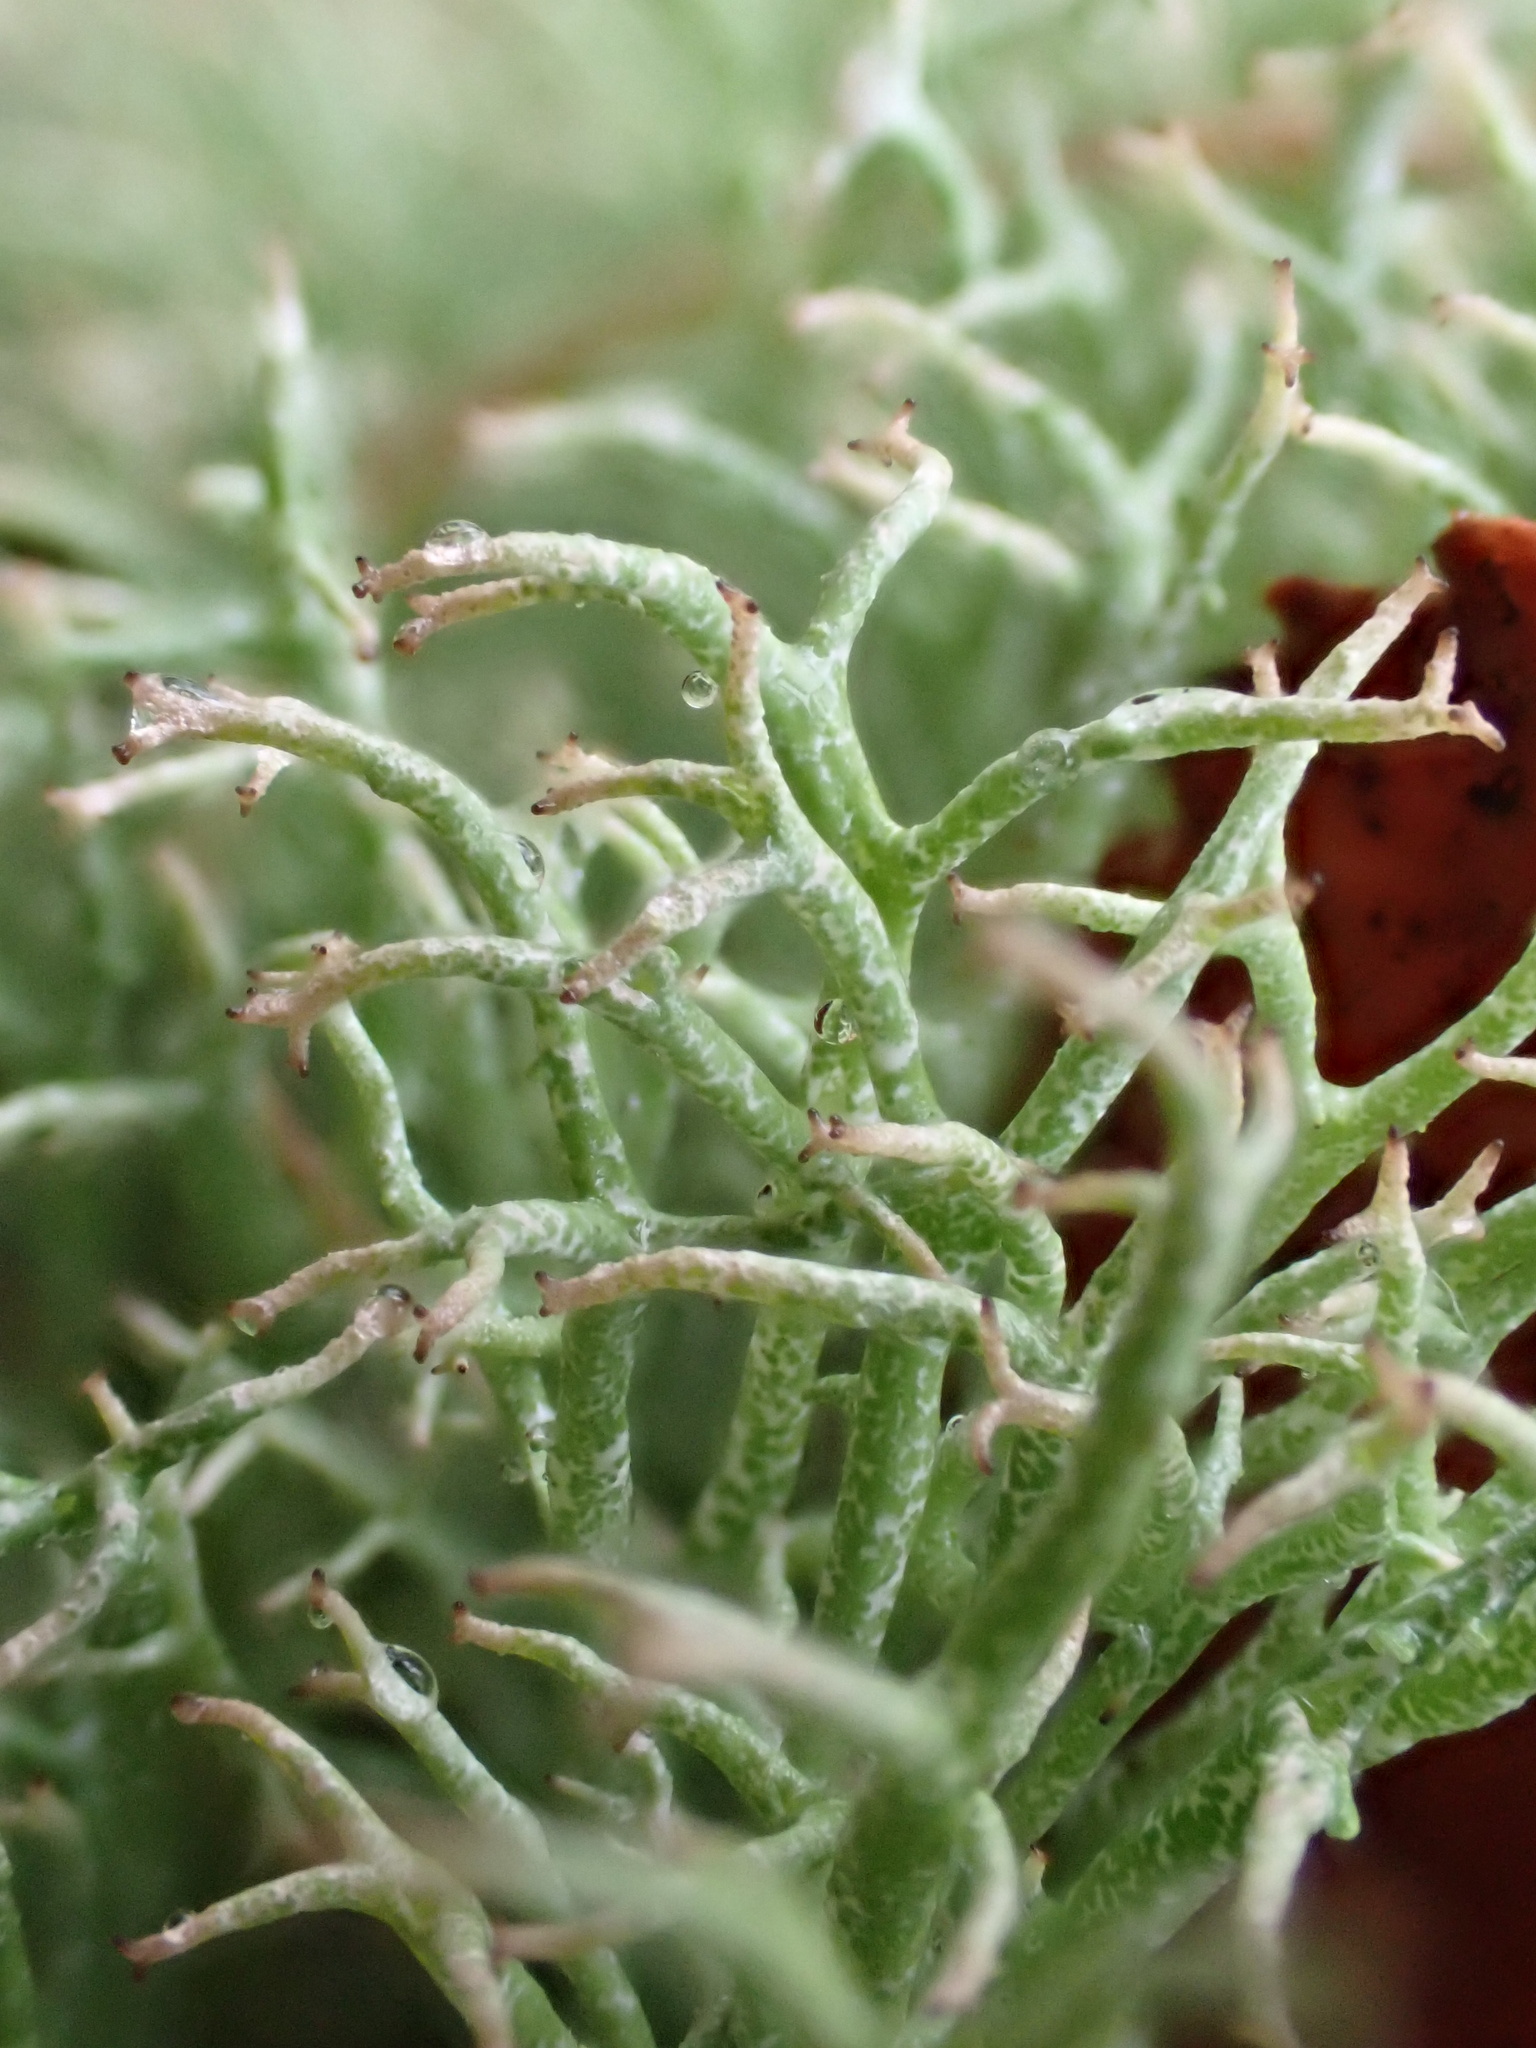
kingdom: Fungi
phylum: Ascomycota
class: Lecanoromycetes
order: Lecanorales
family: Cladoniaceae
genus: Cladonia
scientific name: Cladonia furcata
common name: Many-forked cladonia
